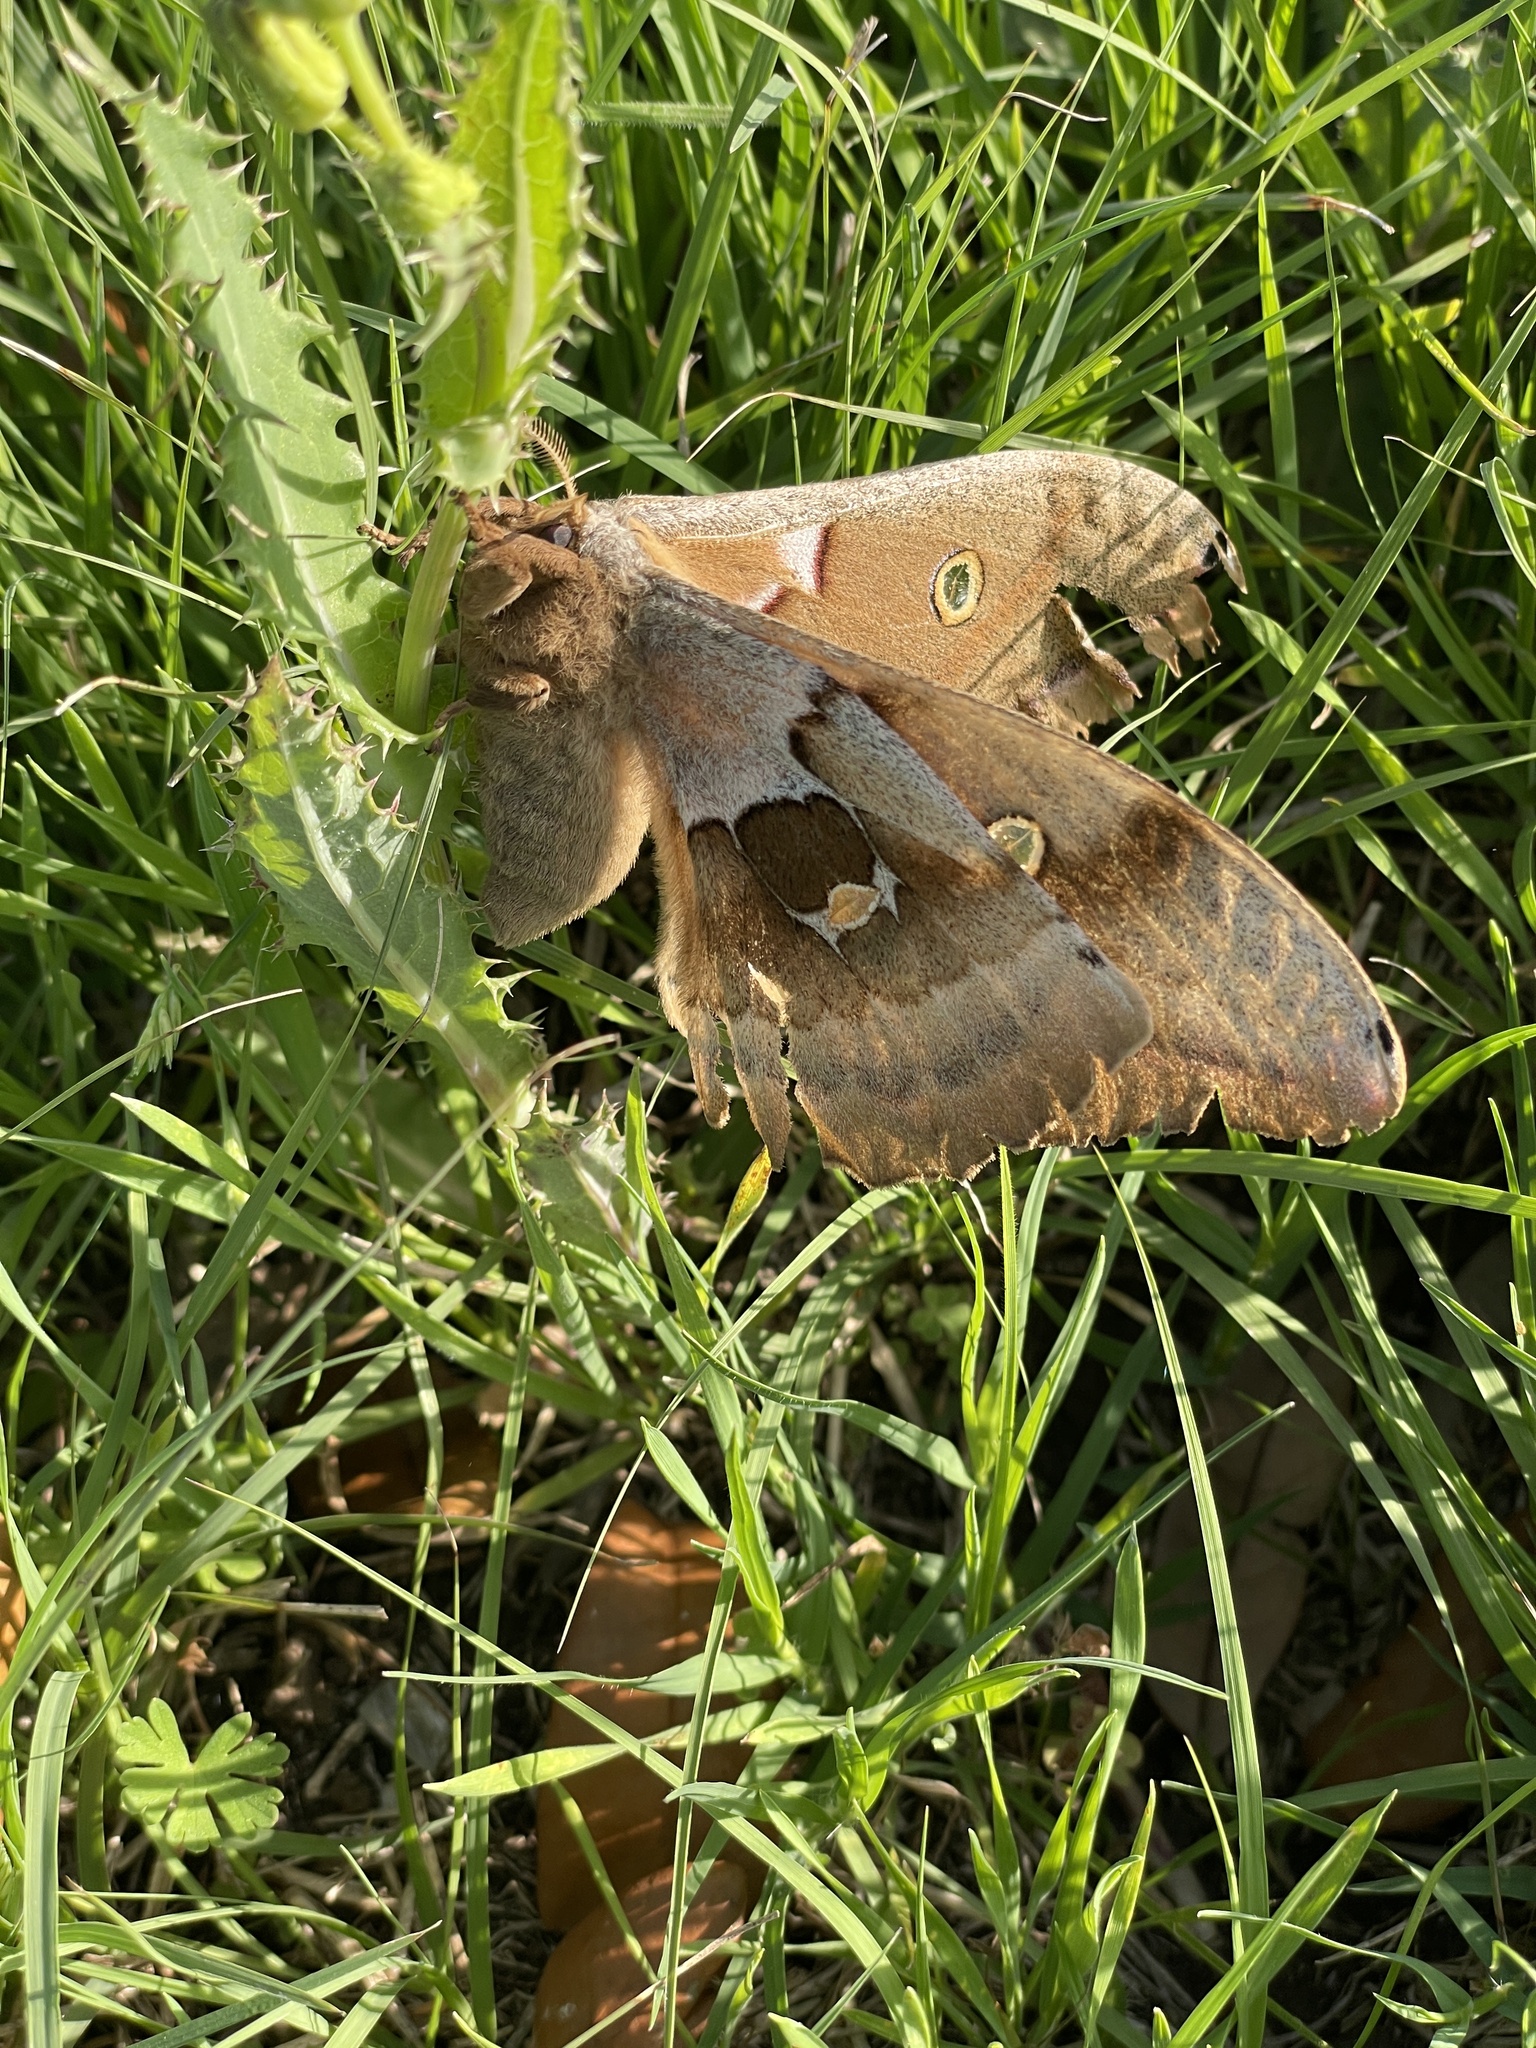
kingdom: Animalia
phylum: Arthropoda
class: Insecta
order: Lepidoptera
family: Saturniidae
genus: Antheraea
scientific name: Antheraea polyphemus
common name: Polyphemus moth
